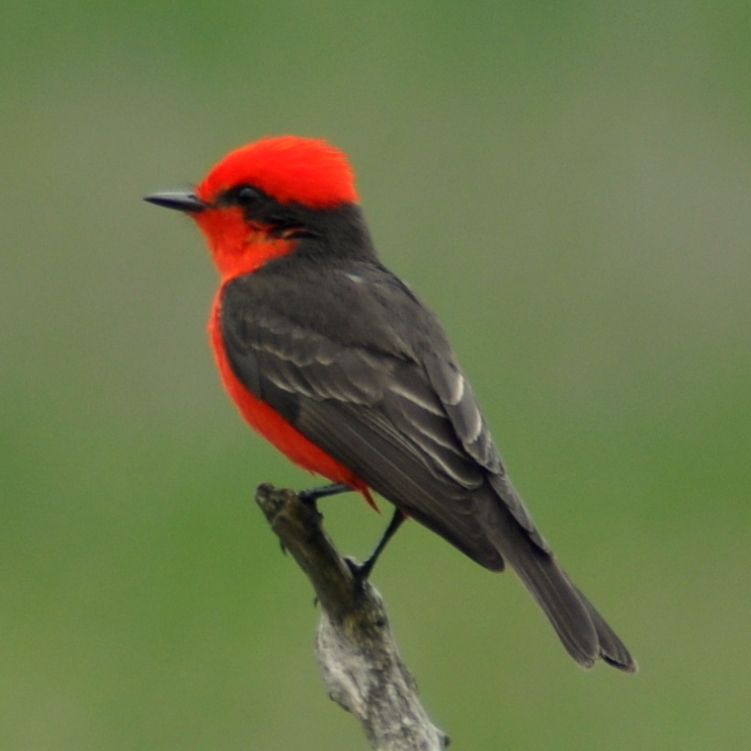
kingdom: Animalia
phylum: Chordata
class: Aves
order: Passeriformes
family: Tyrannidae
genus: Pyrocephalus
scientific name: Pyrocephalus rubinus
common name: Vermilion flycatcher
